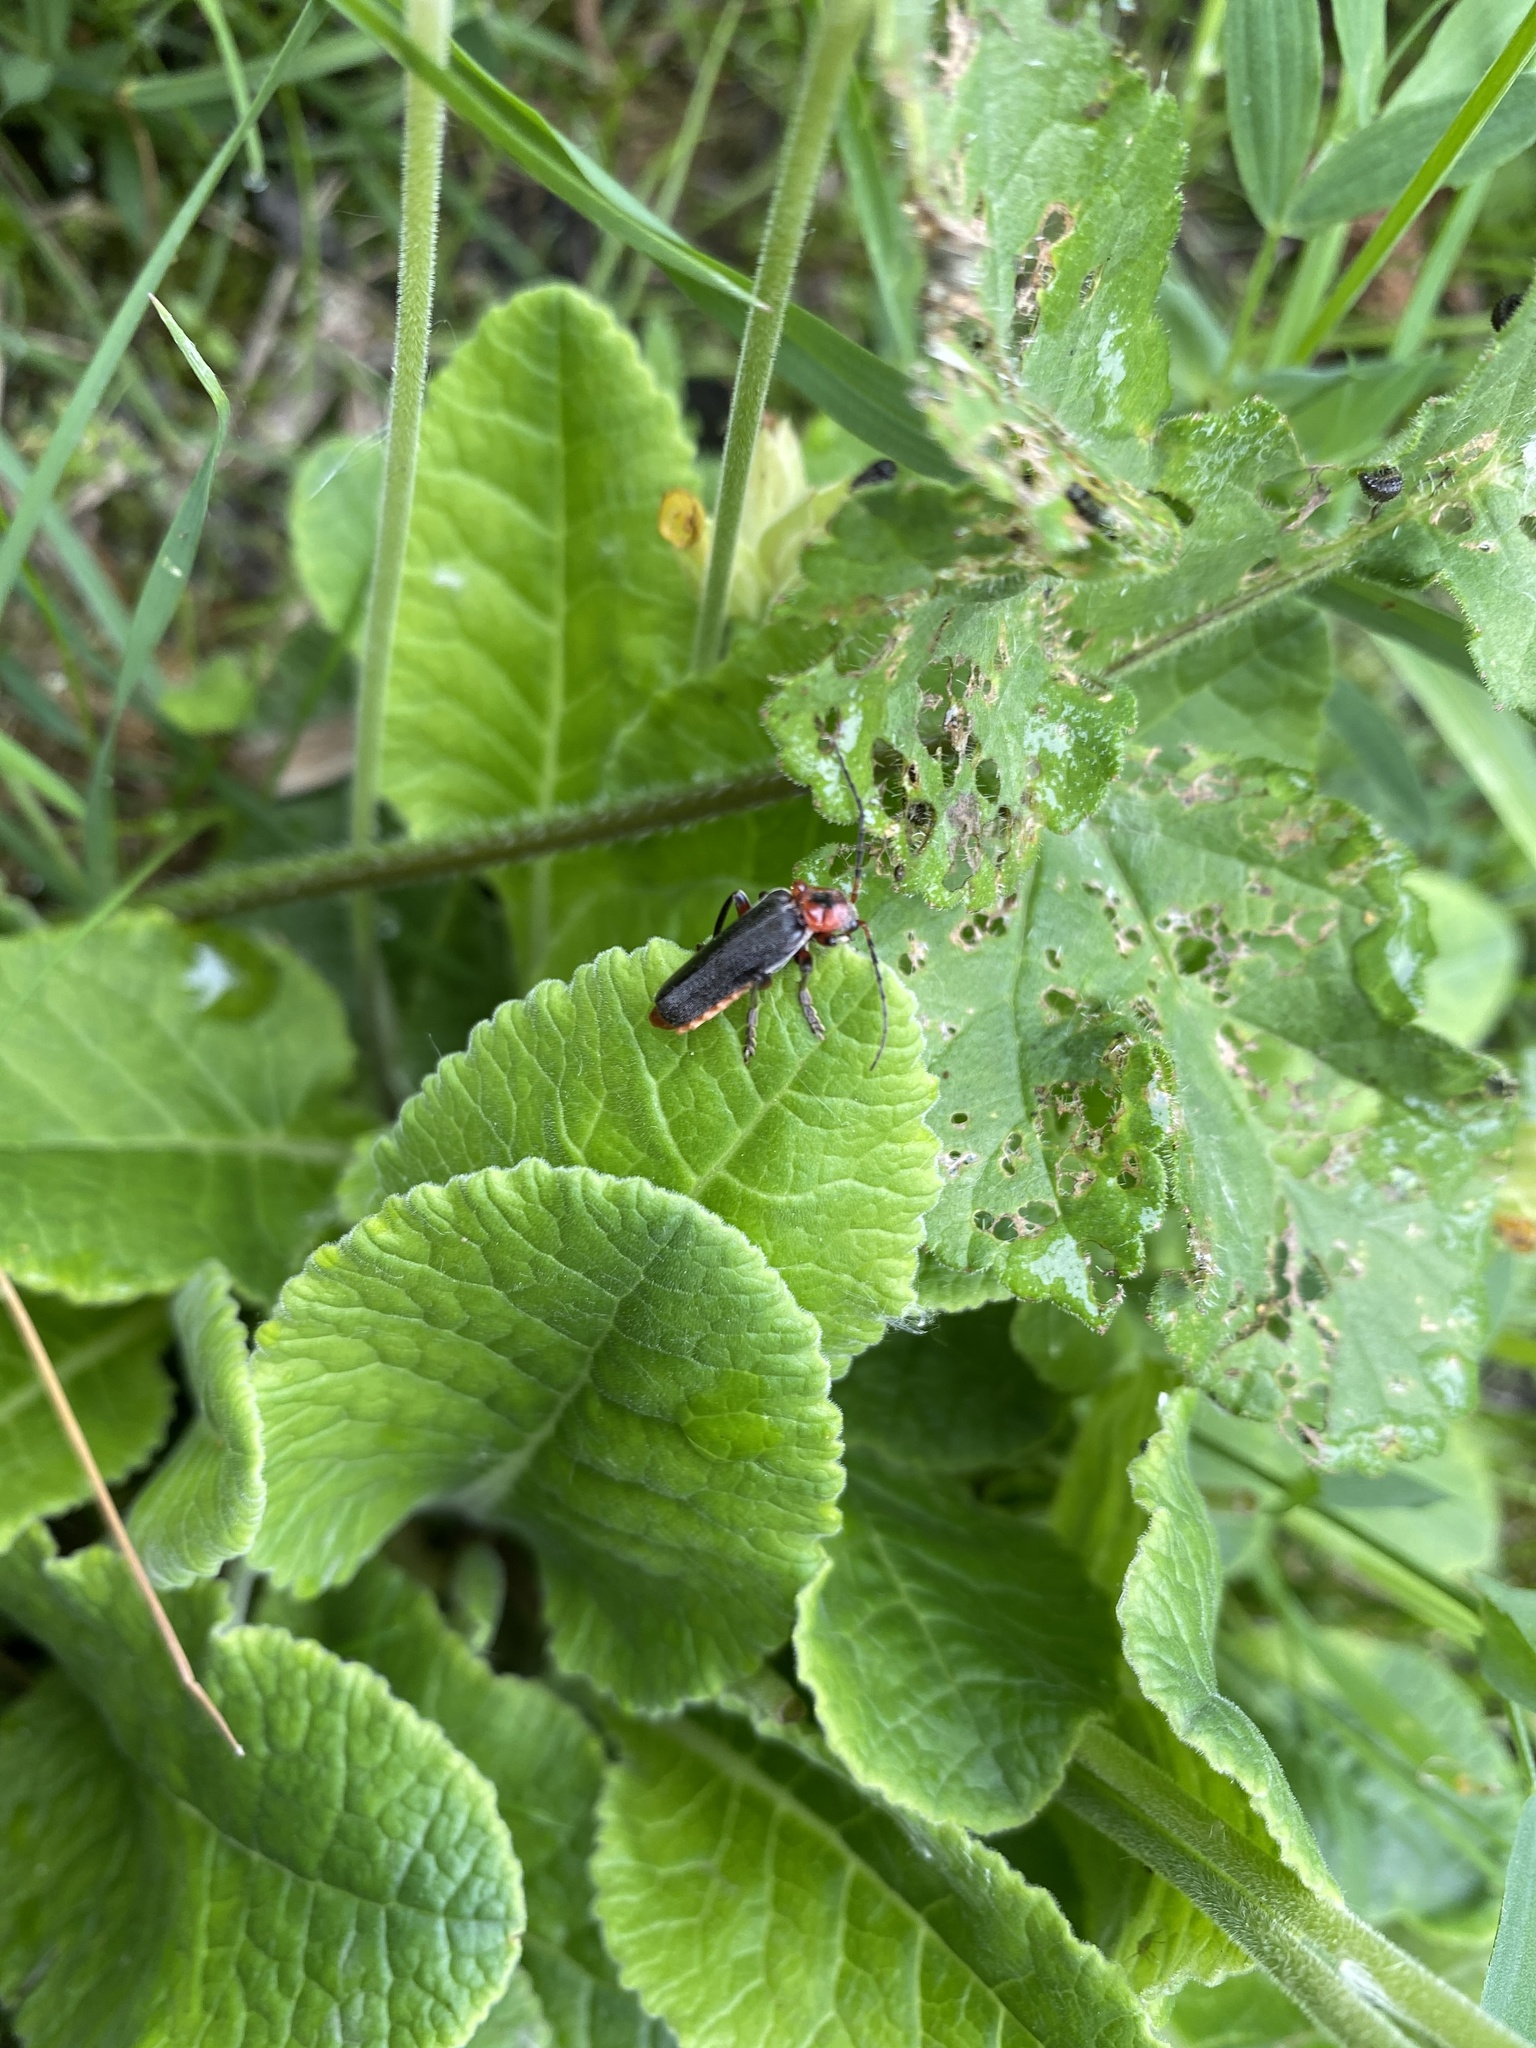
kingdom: Animalia
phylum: Arthropoda
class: Insecta
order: Coleoptera
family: Cantharidae
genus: Cantharis
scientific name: Cantharis rustica
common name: Soldier beetle
